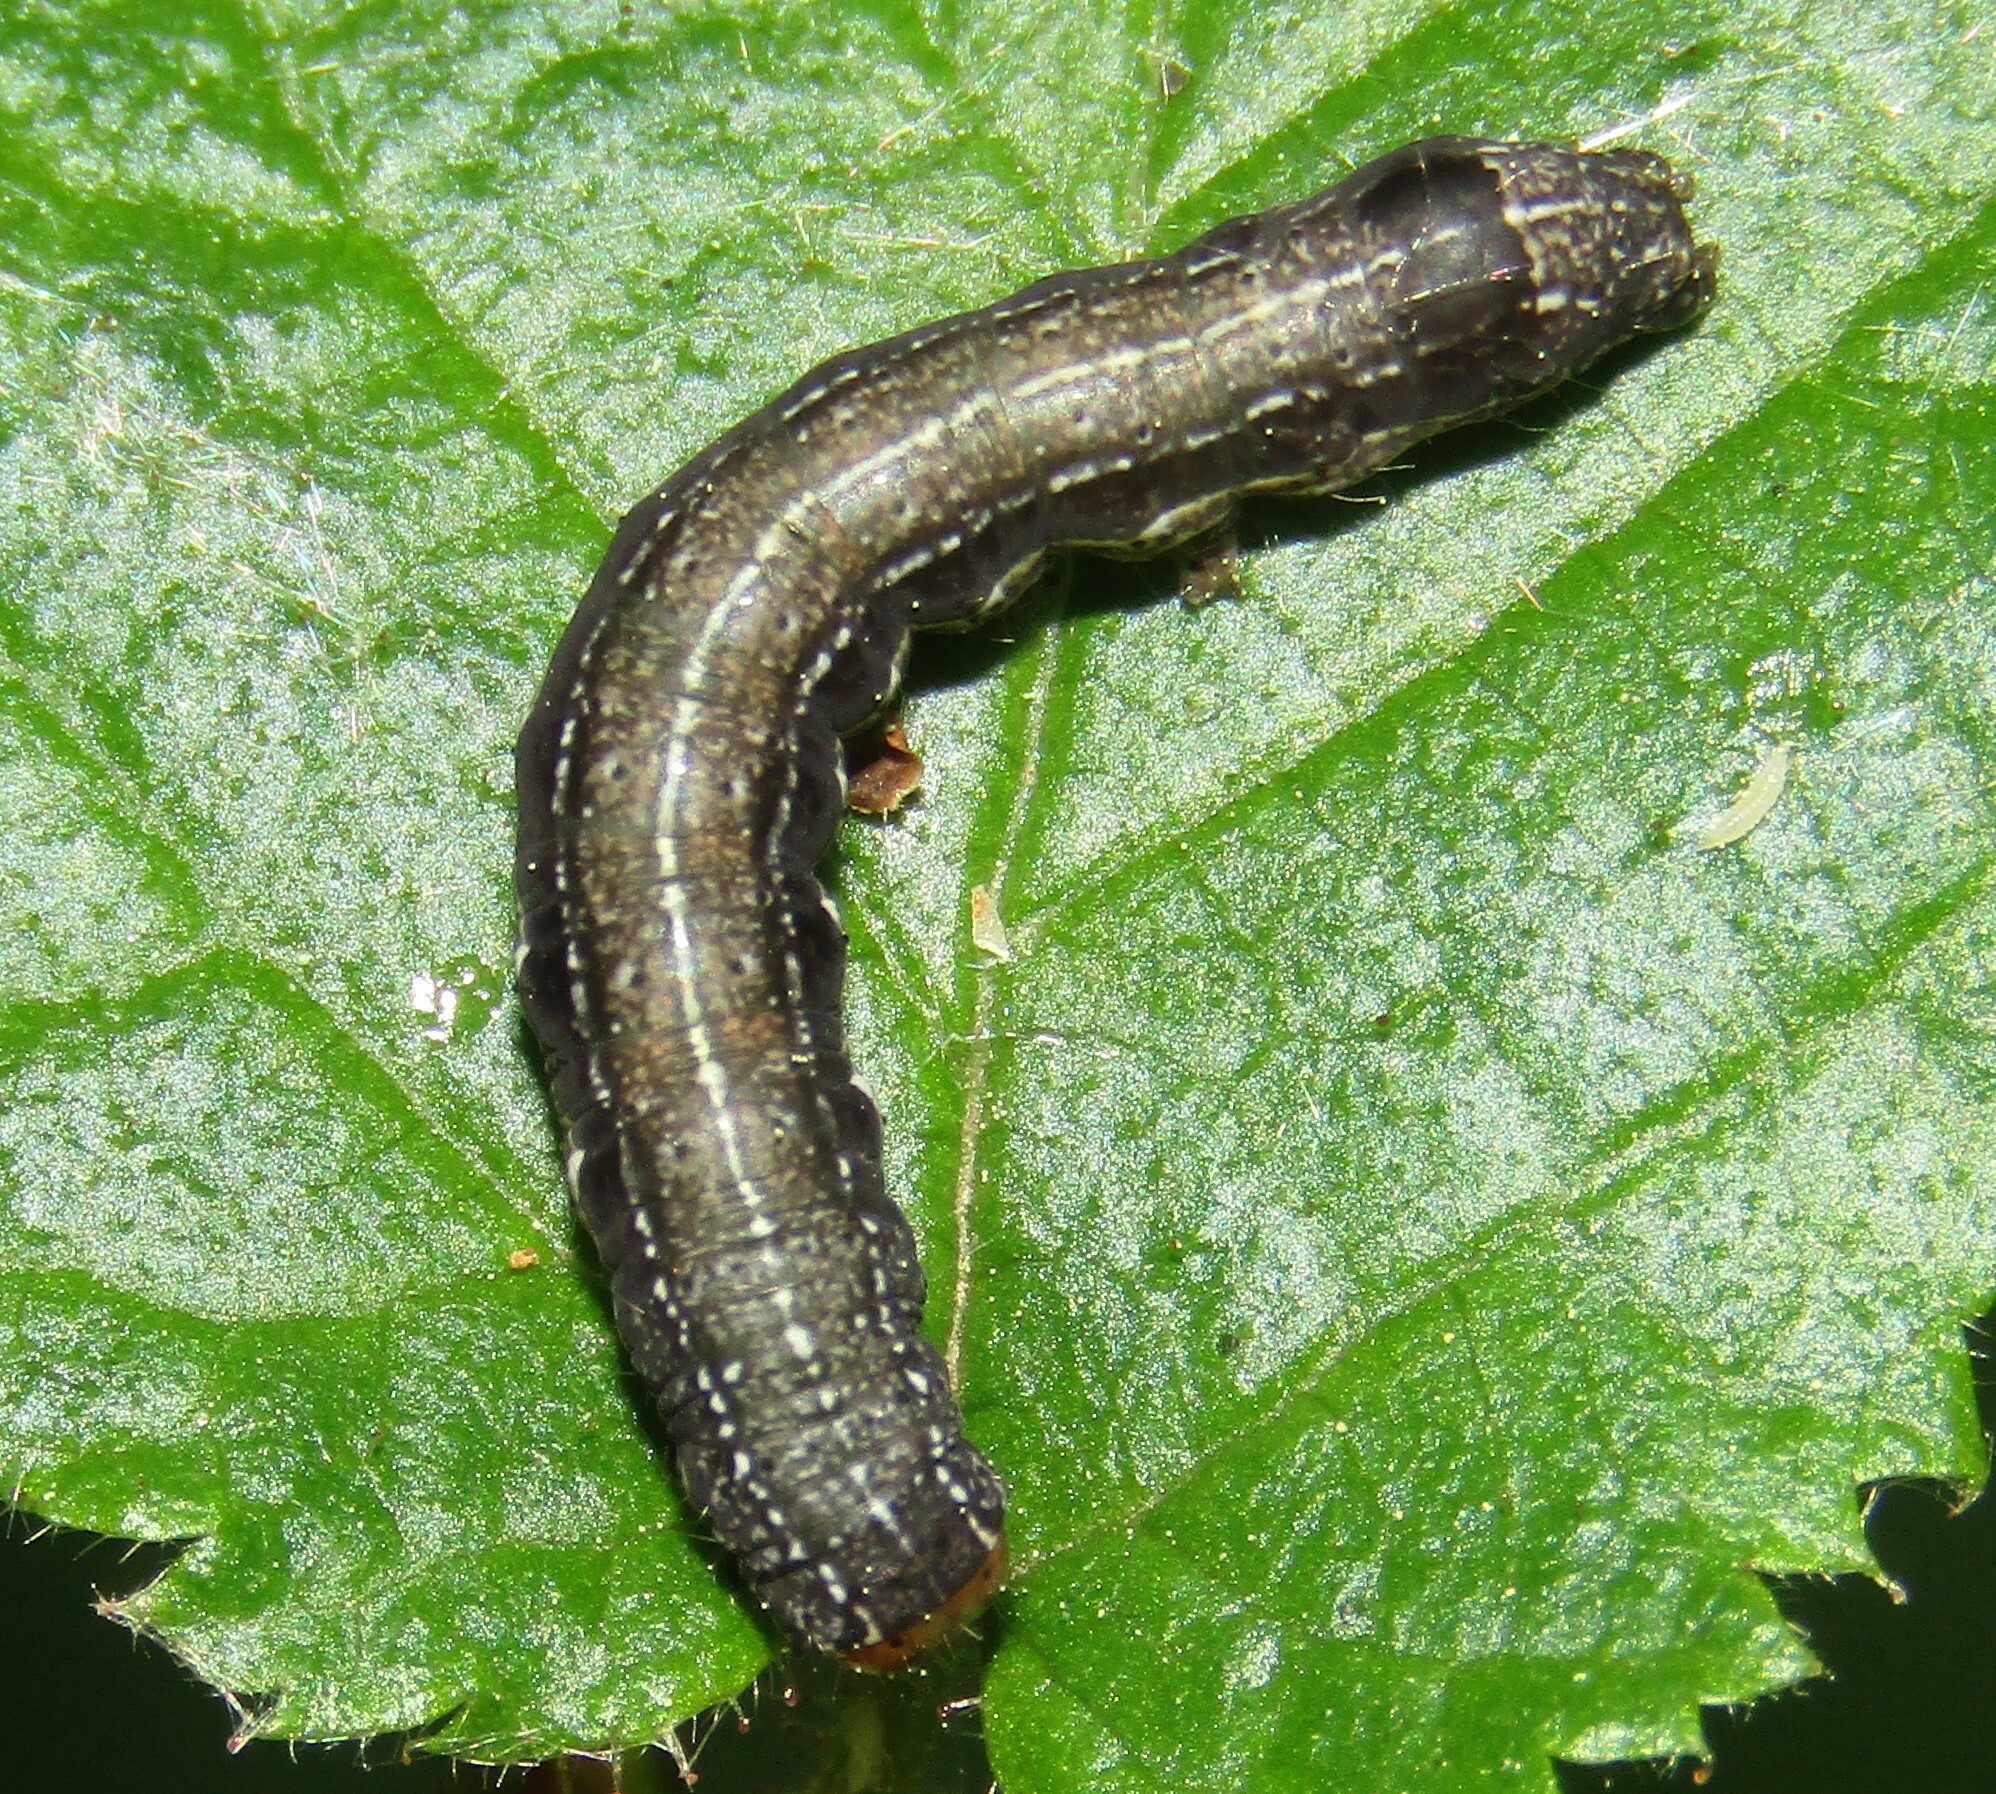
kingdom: Animalia
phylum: Arthropoda
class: Insecta
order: Lepidoptera
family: Noctuidae
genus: Anorthoa
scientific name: Anorthoa munda
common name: Twin-spotted quaker
